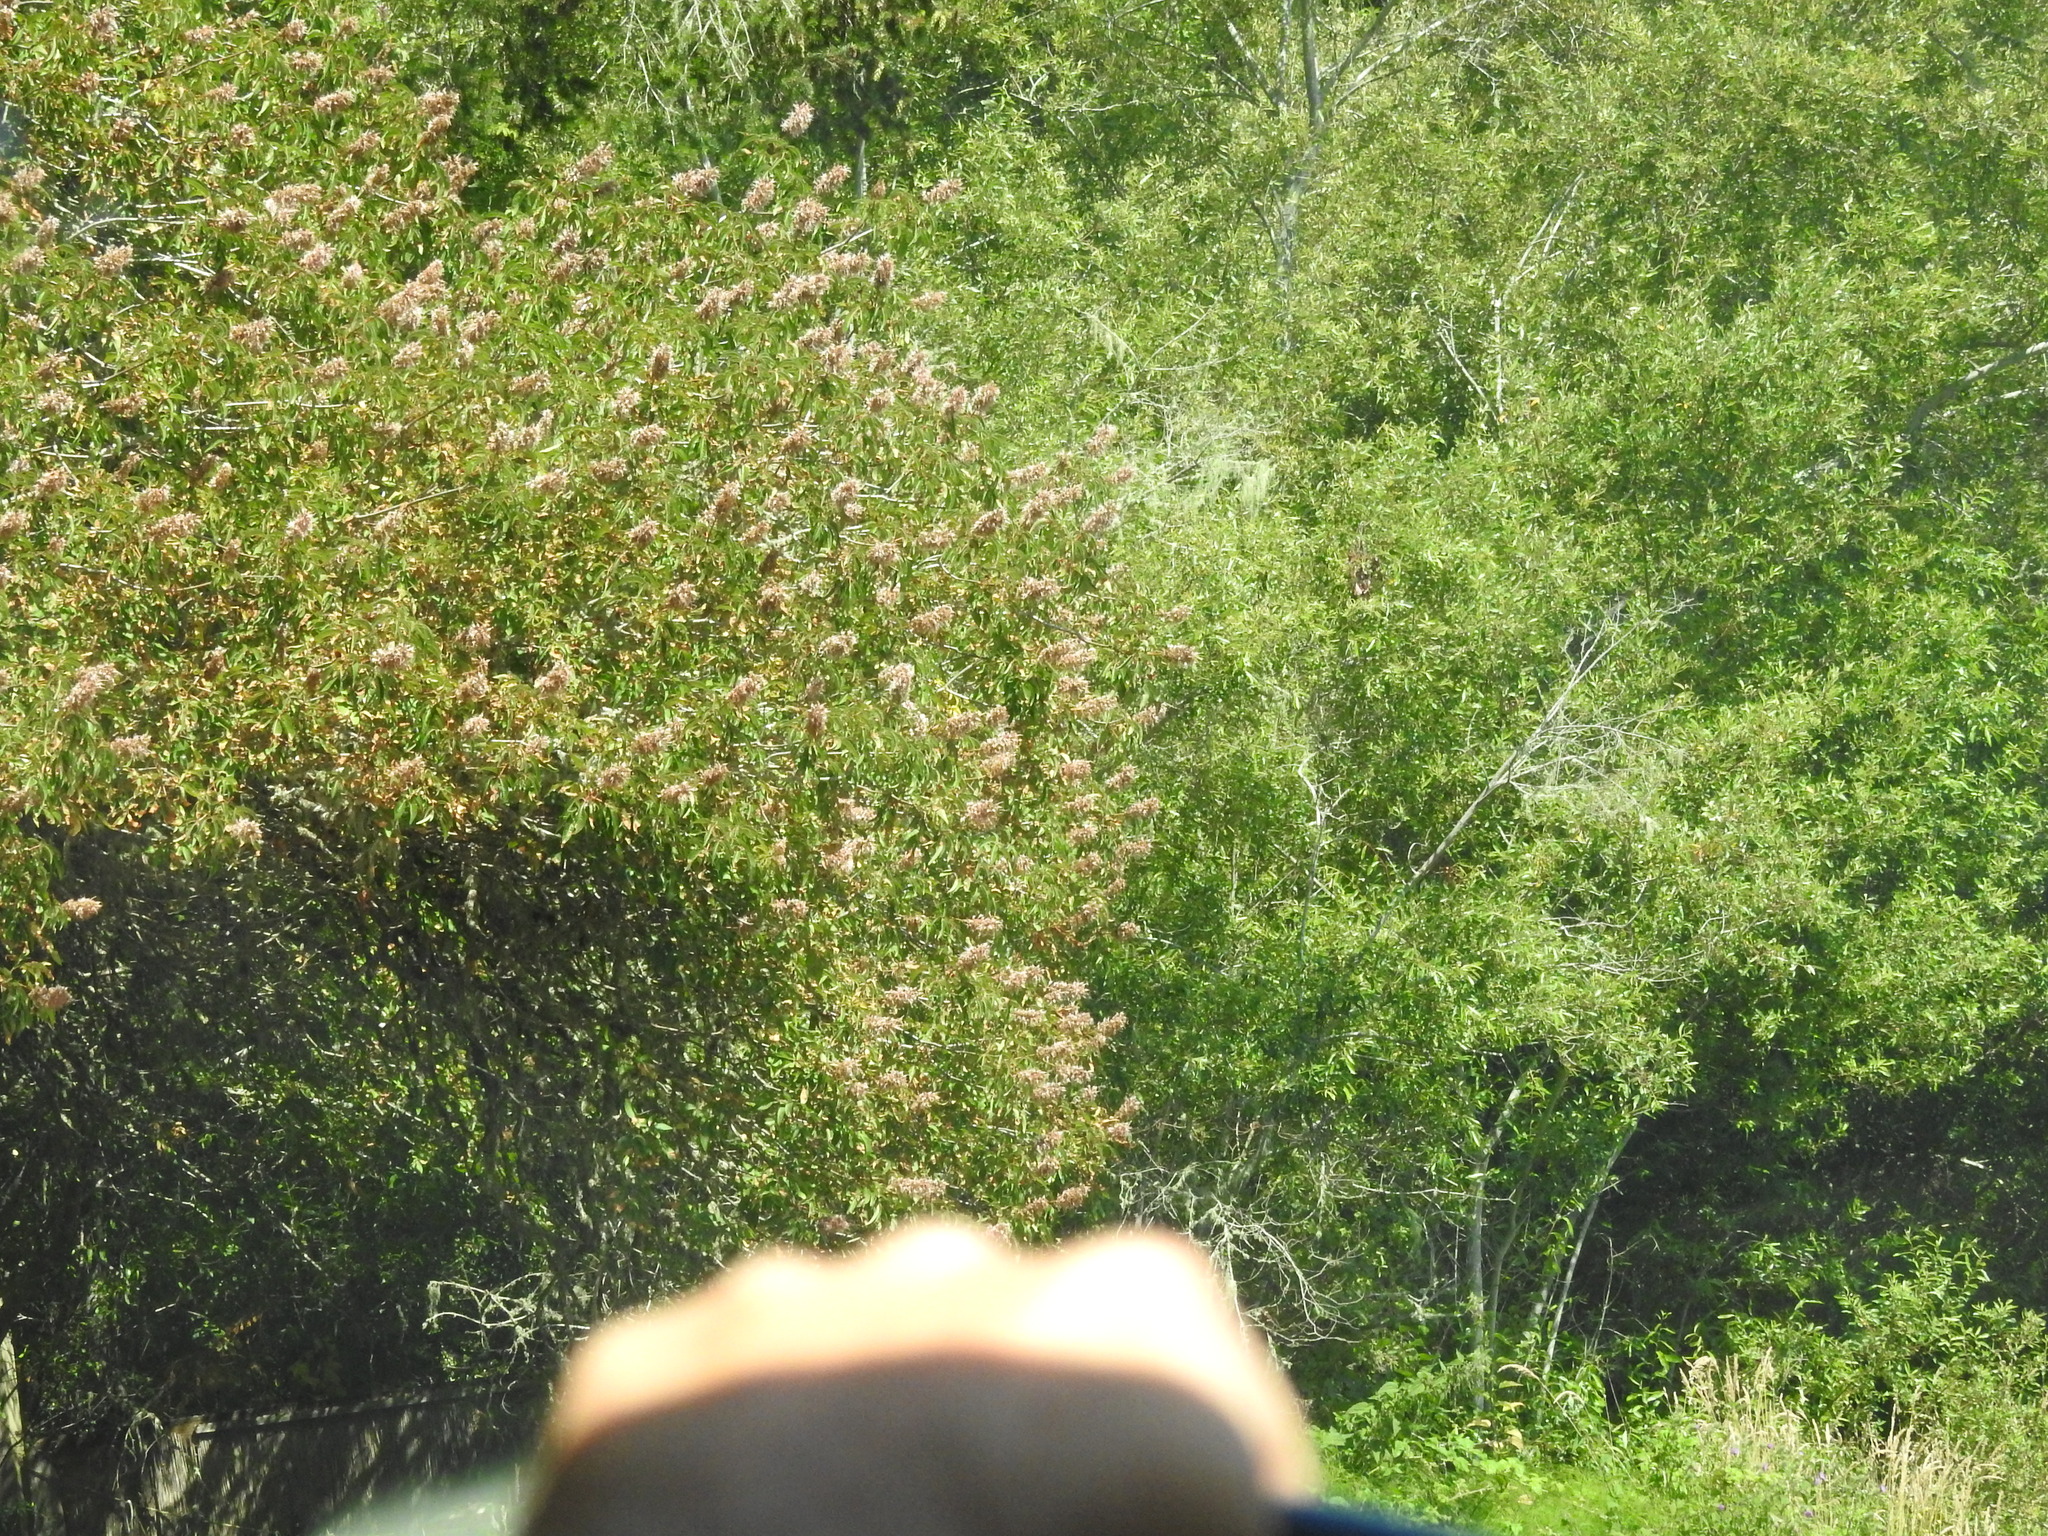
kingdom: Plantae
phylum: Tracheophyta
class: Magnoliopsida
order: Sapindales
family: Sapindaceae
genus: Aesculus
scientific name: Aesculus californica
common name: California buckeye
